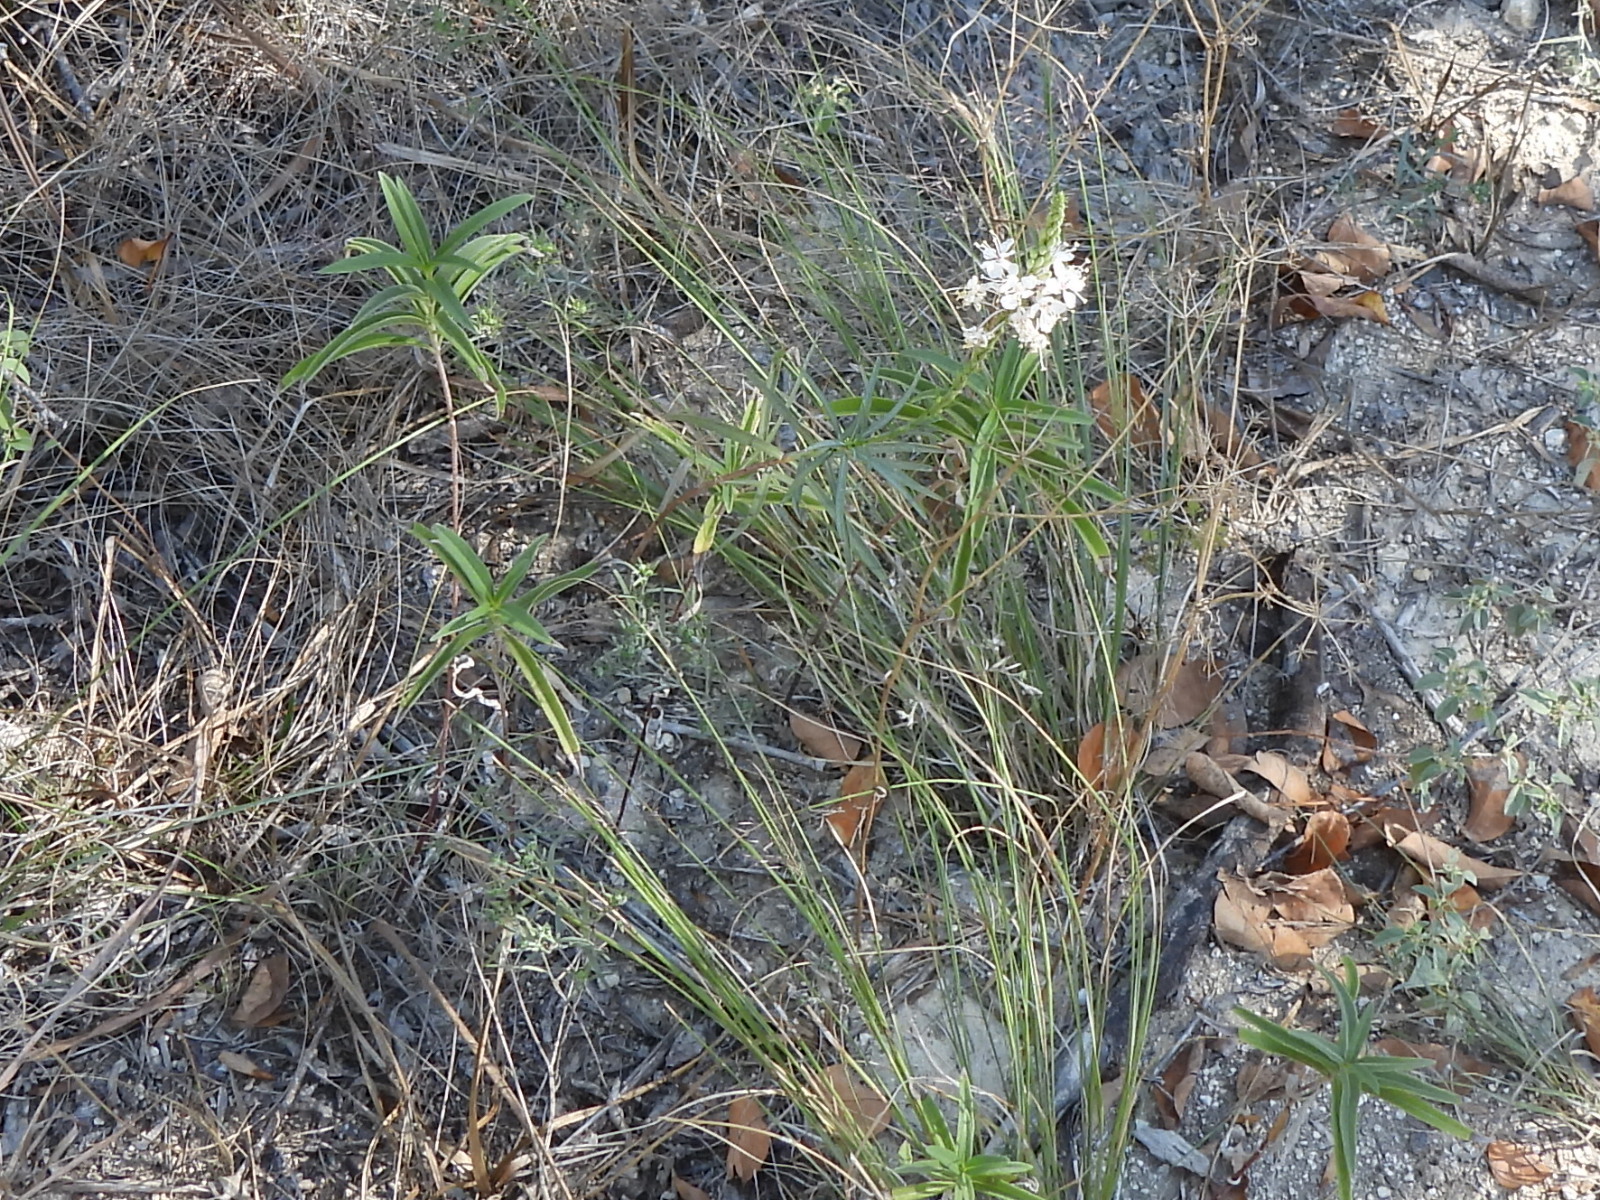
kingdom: Plantae
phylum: Tracheophyta
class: Magnoliopsida
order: Myrtales
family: Onagraceae
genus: Oenothera
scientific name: Oenothera glaucifolia
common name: False gaura
